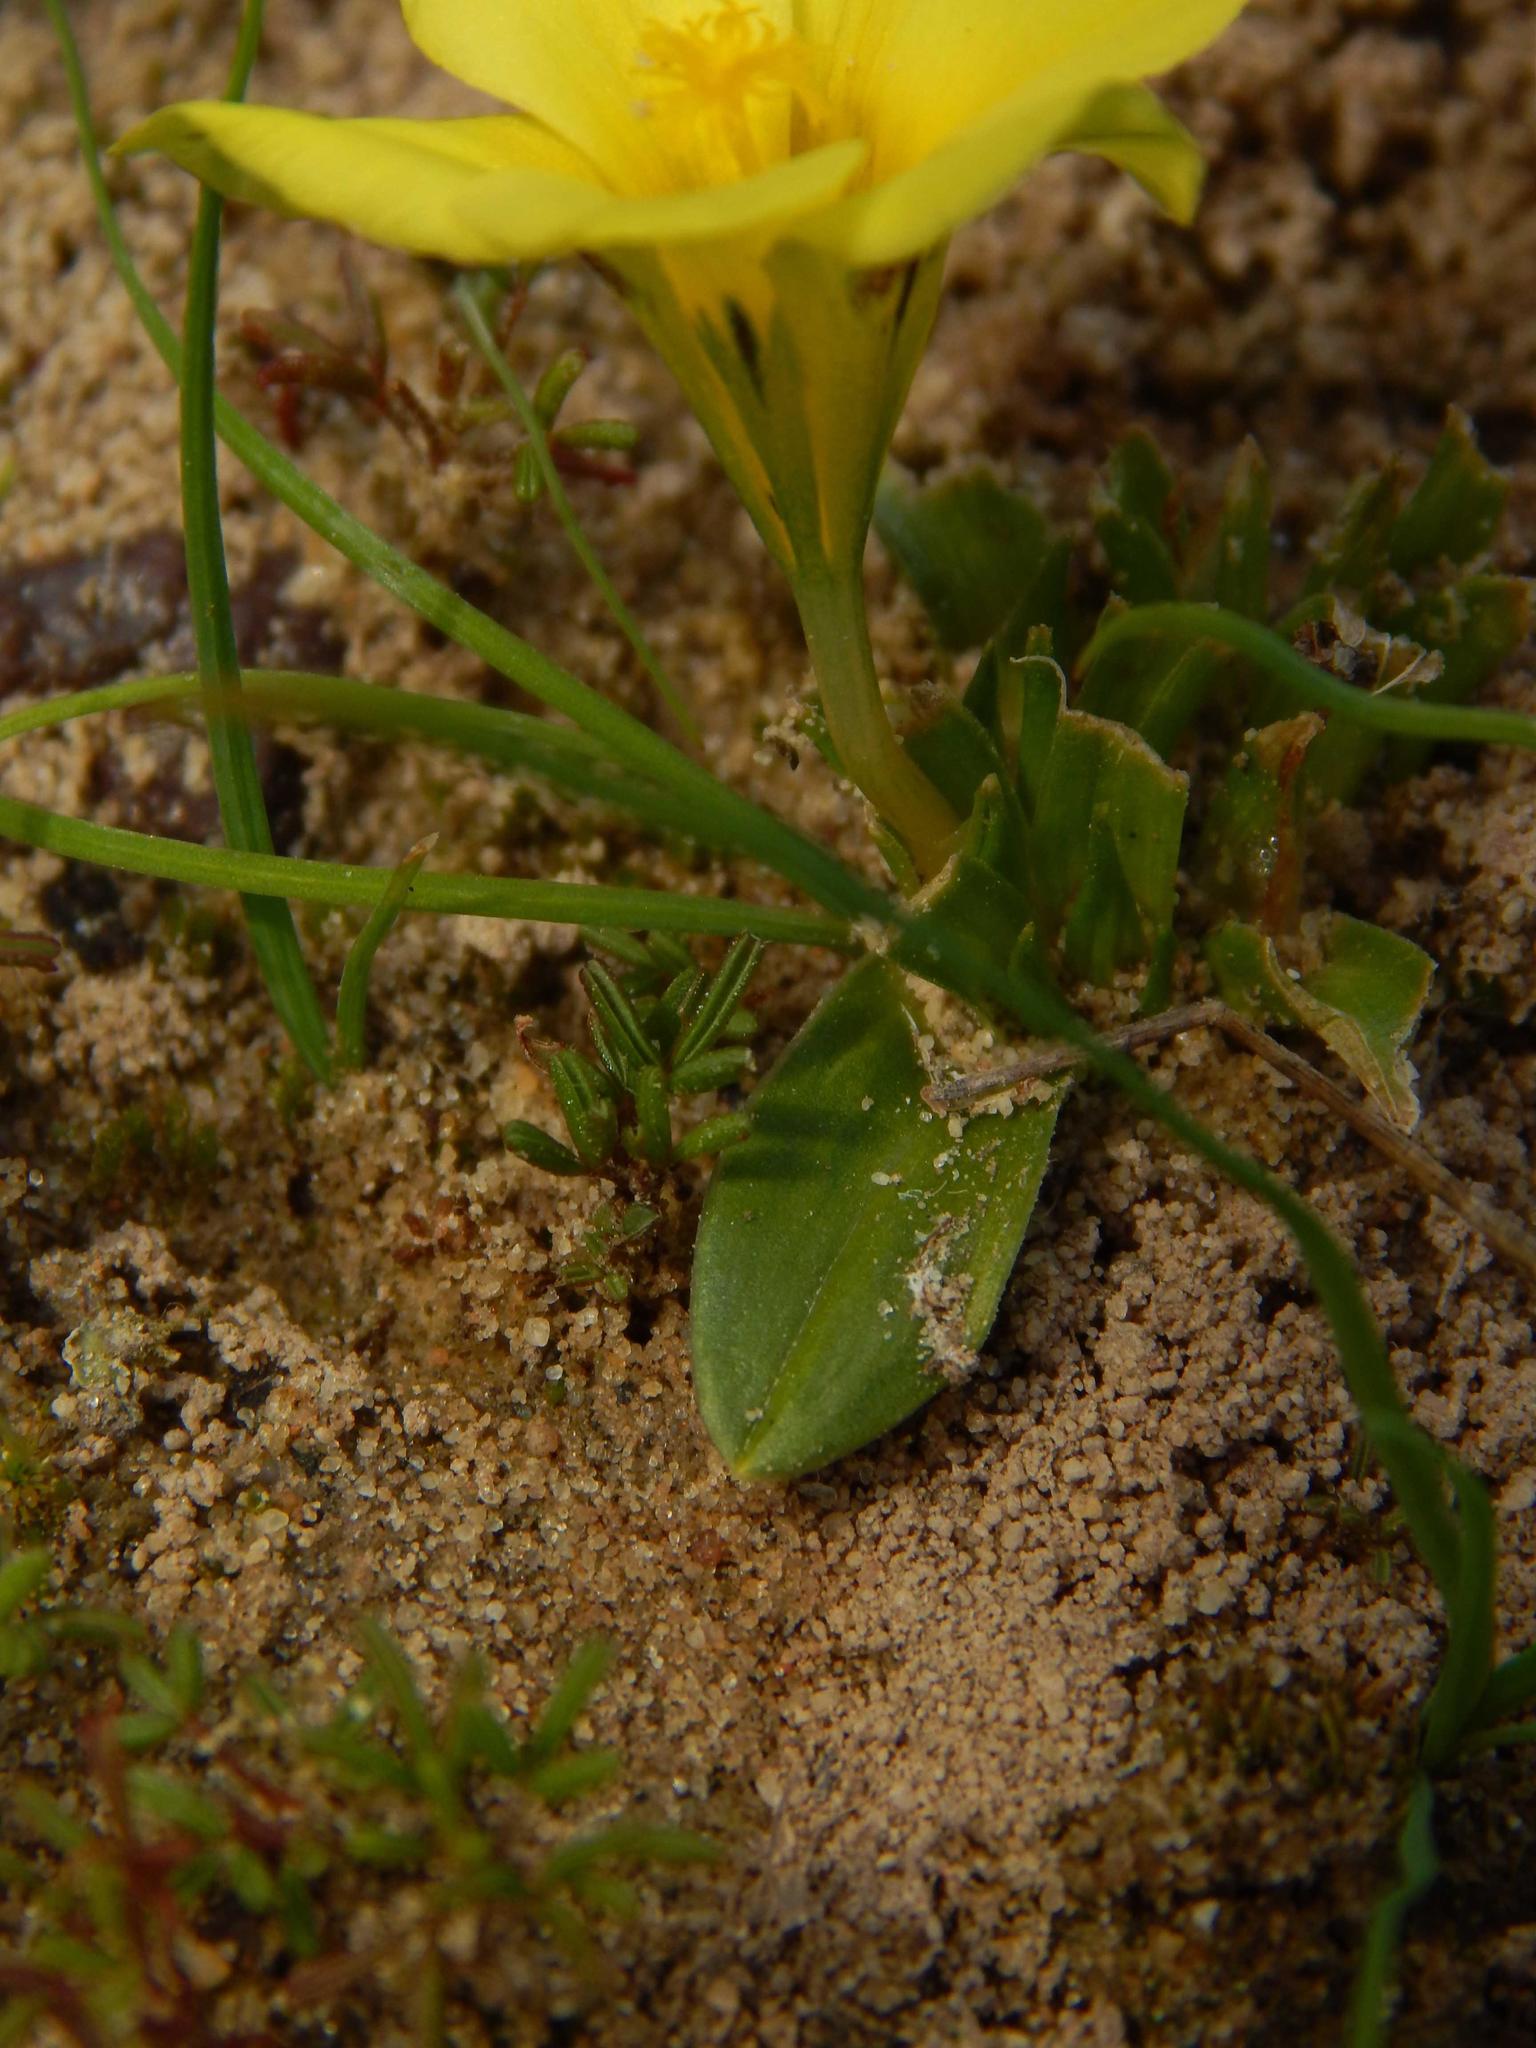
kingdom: Plantae
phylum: Tracheophyta
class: Liliopsida
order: Asparagales
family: Iridaceae
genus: Moraea
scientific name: Moraea galaxia
